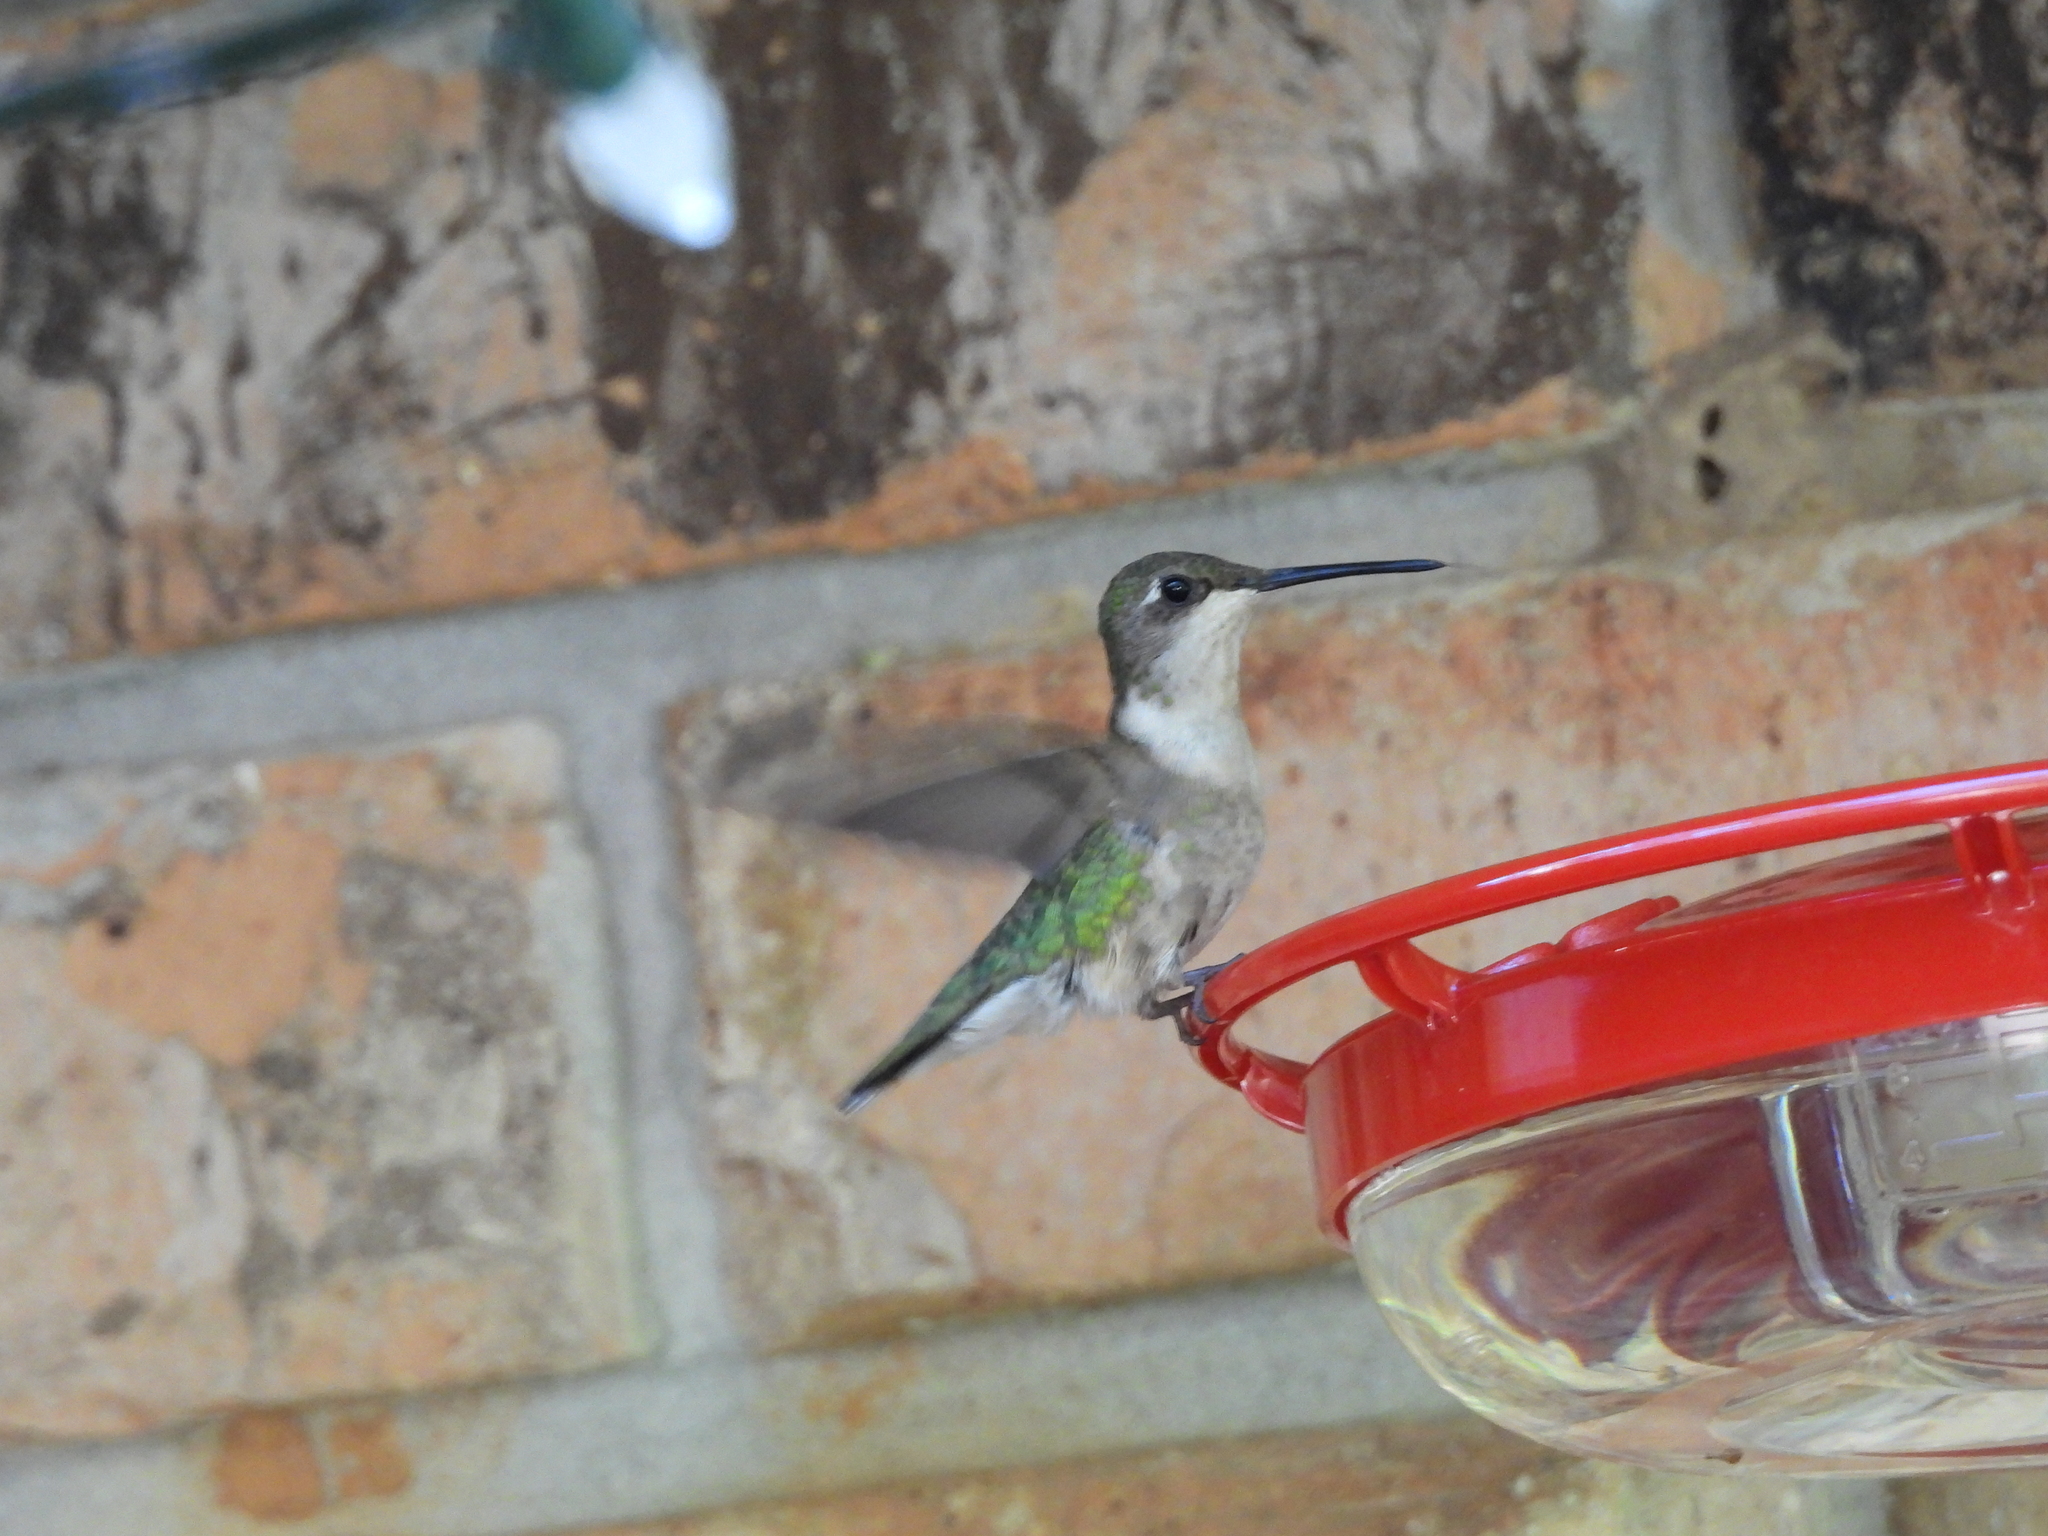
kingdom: Animalia
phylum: Chordata
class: Aves
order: Apodiformes
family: Trochilidae
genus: Archilochus
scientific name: Archilochus colubris
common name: Ruby-throated hummingbird
